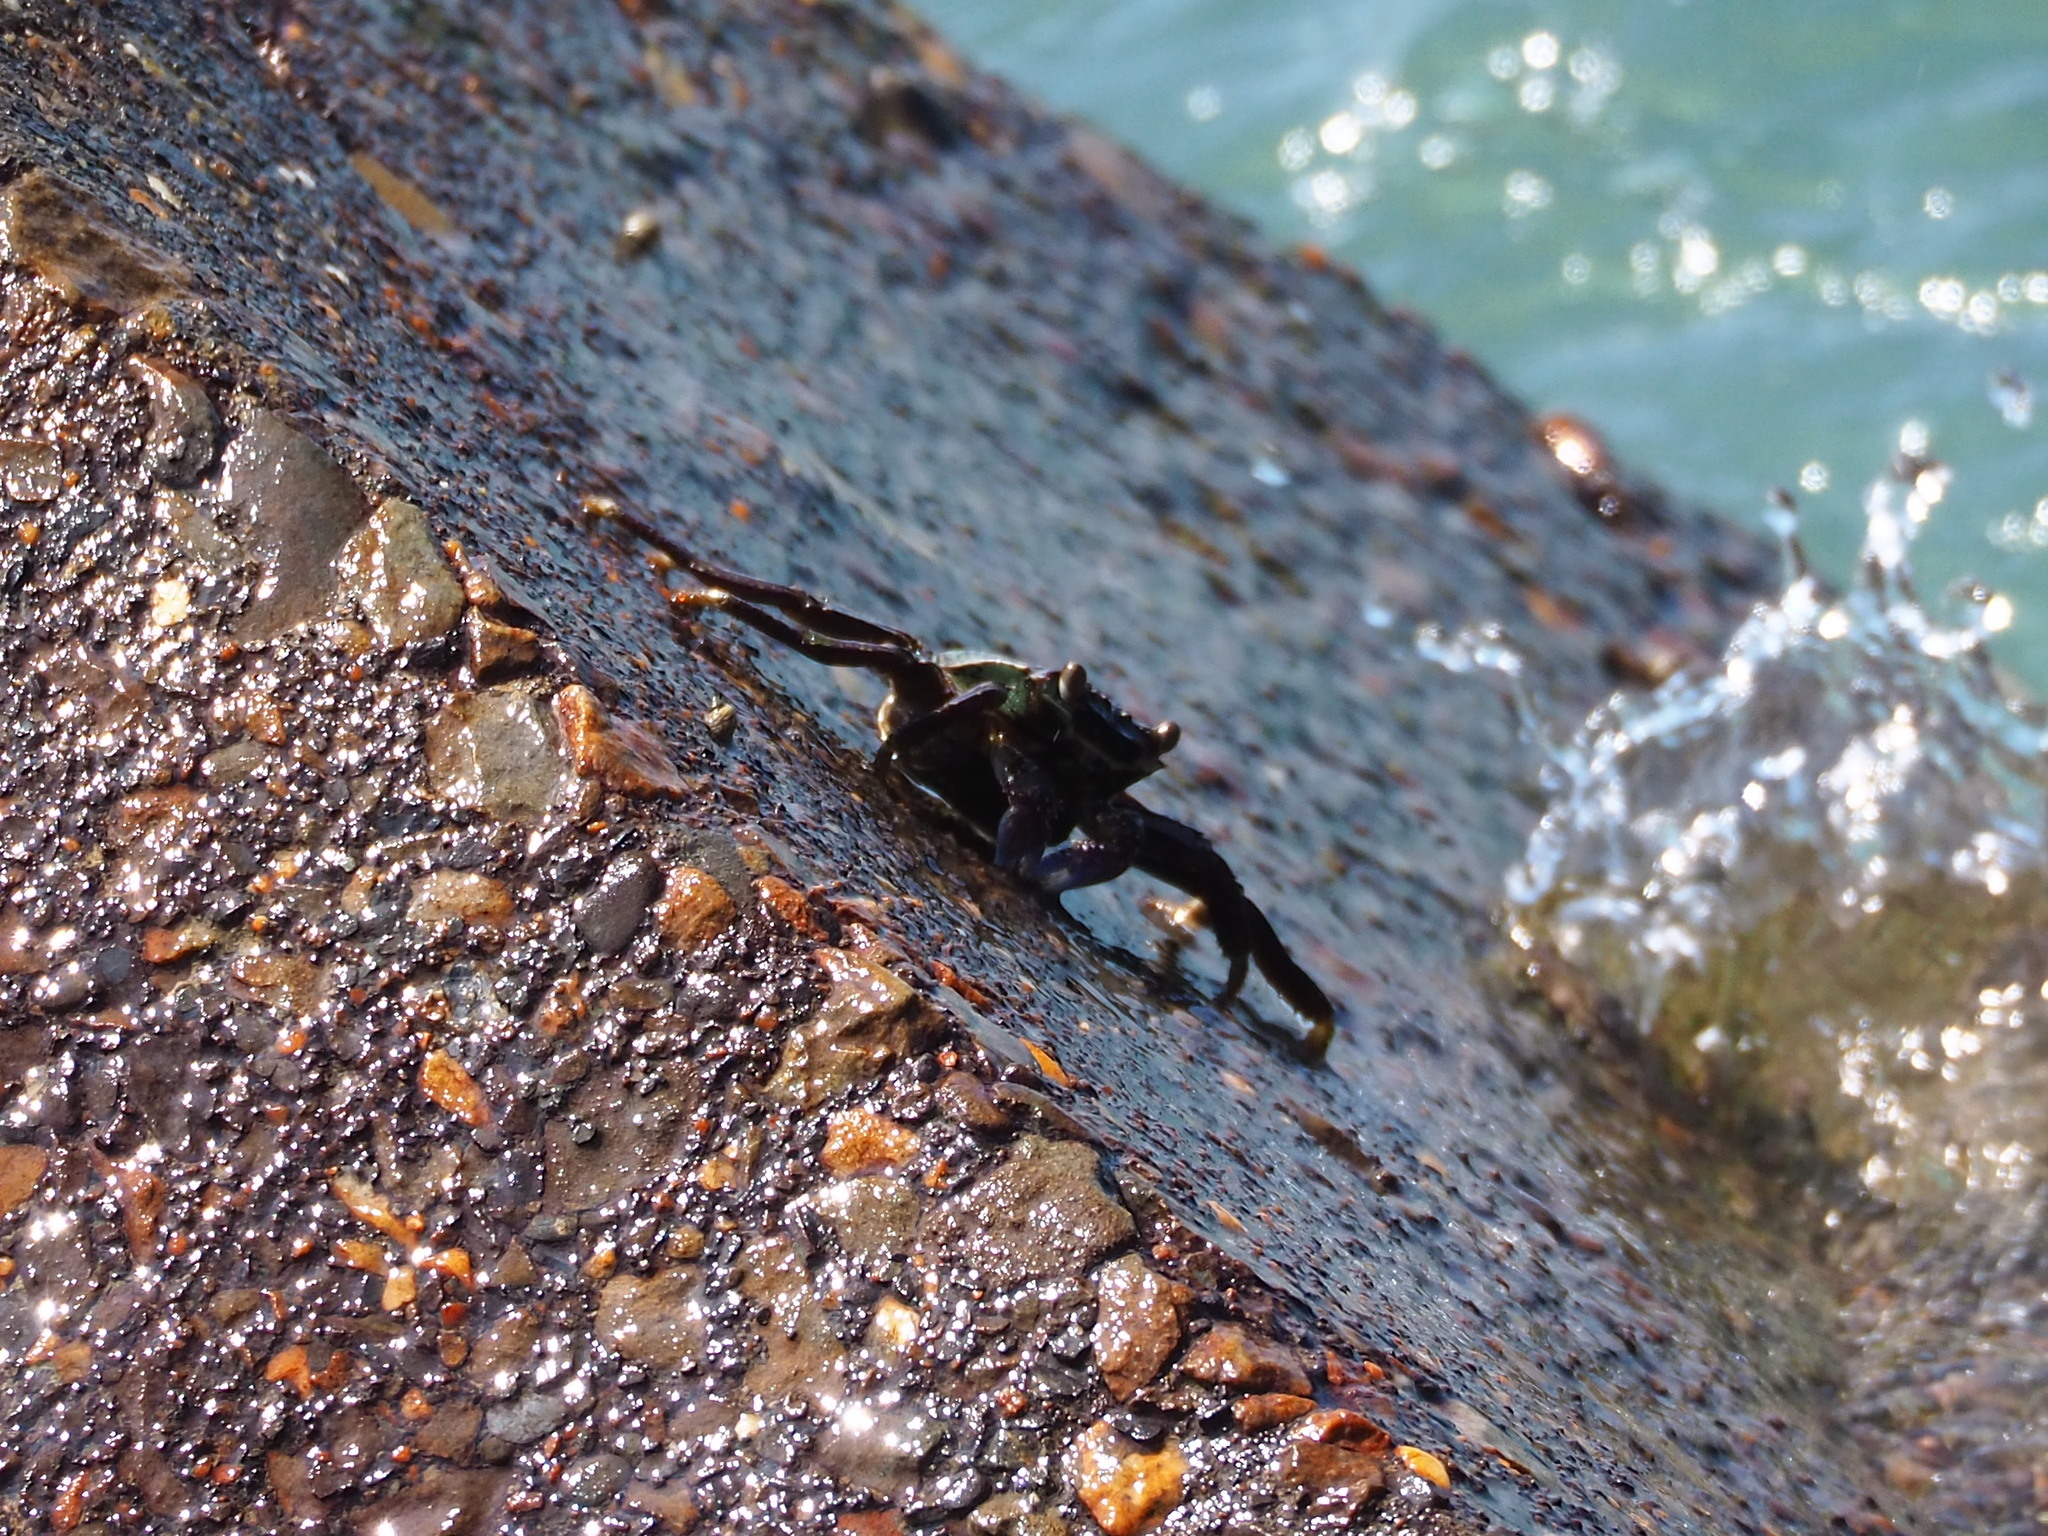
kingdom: Animalia
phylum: Arthropoda
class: Malacostraca
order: Decapoda
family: Grapsidae
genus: Grapsus
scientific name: Grapsus albolineatus
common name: Mottled lightfoot crab
